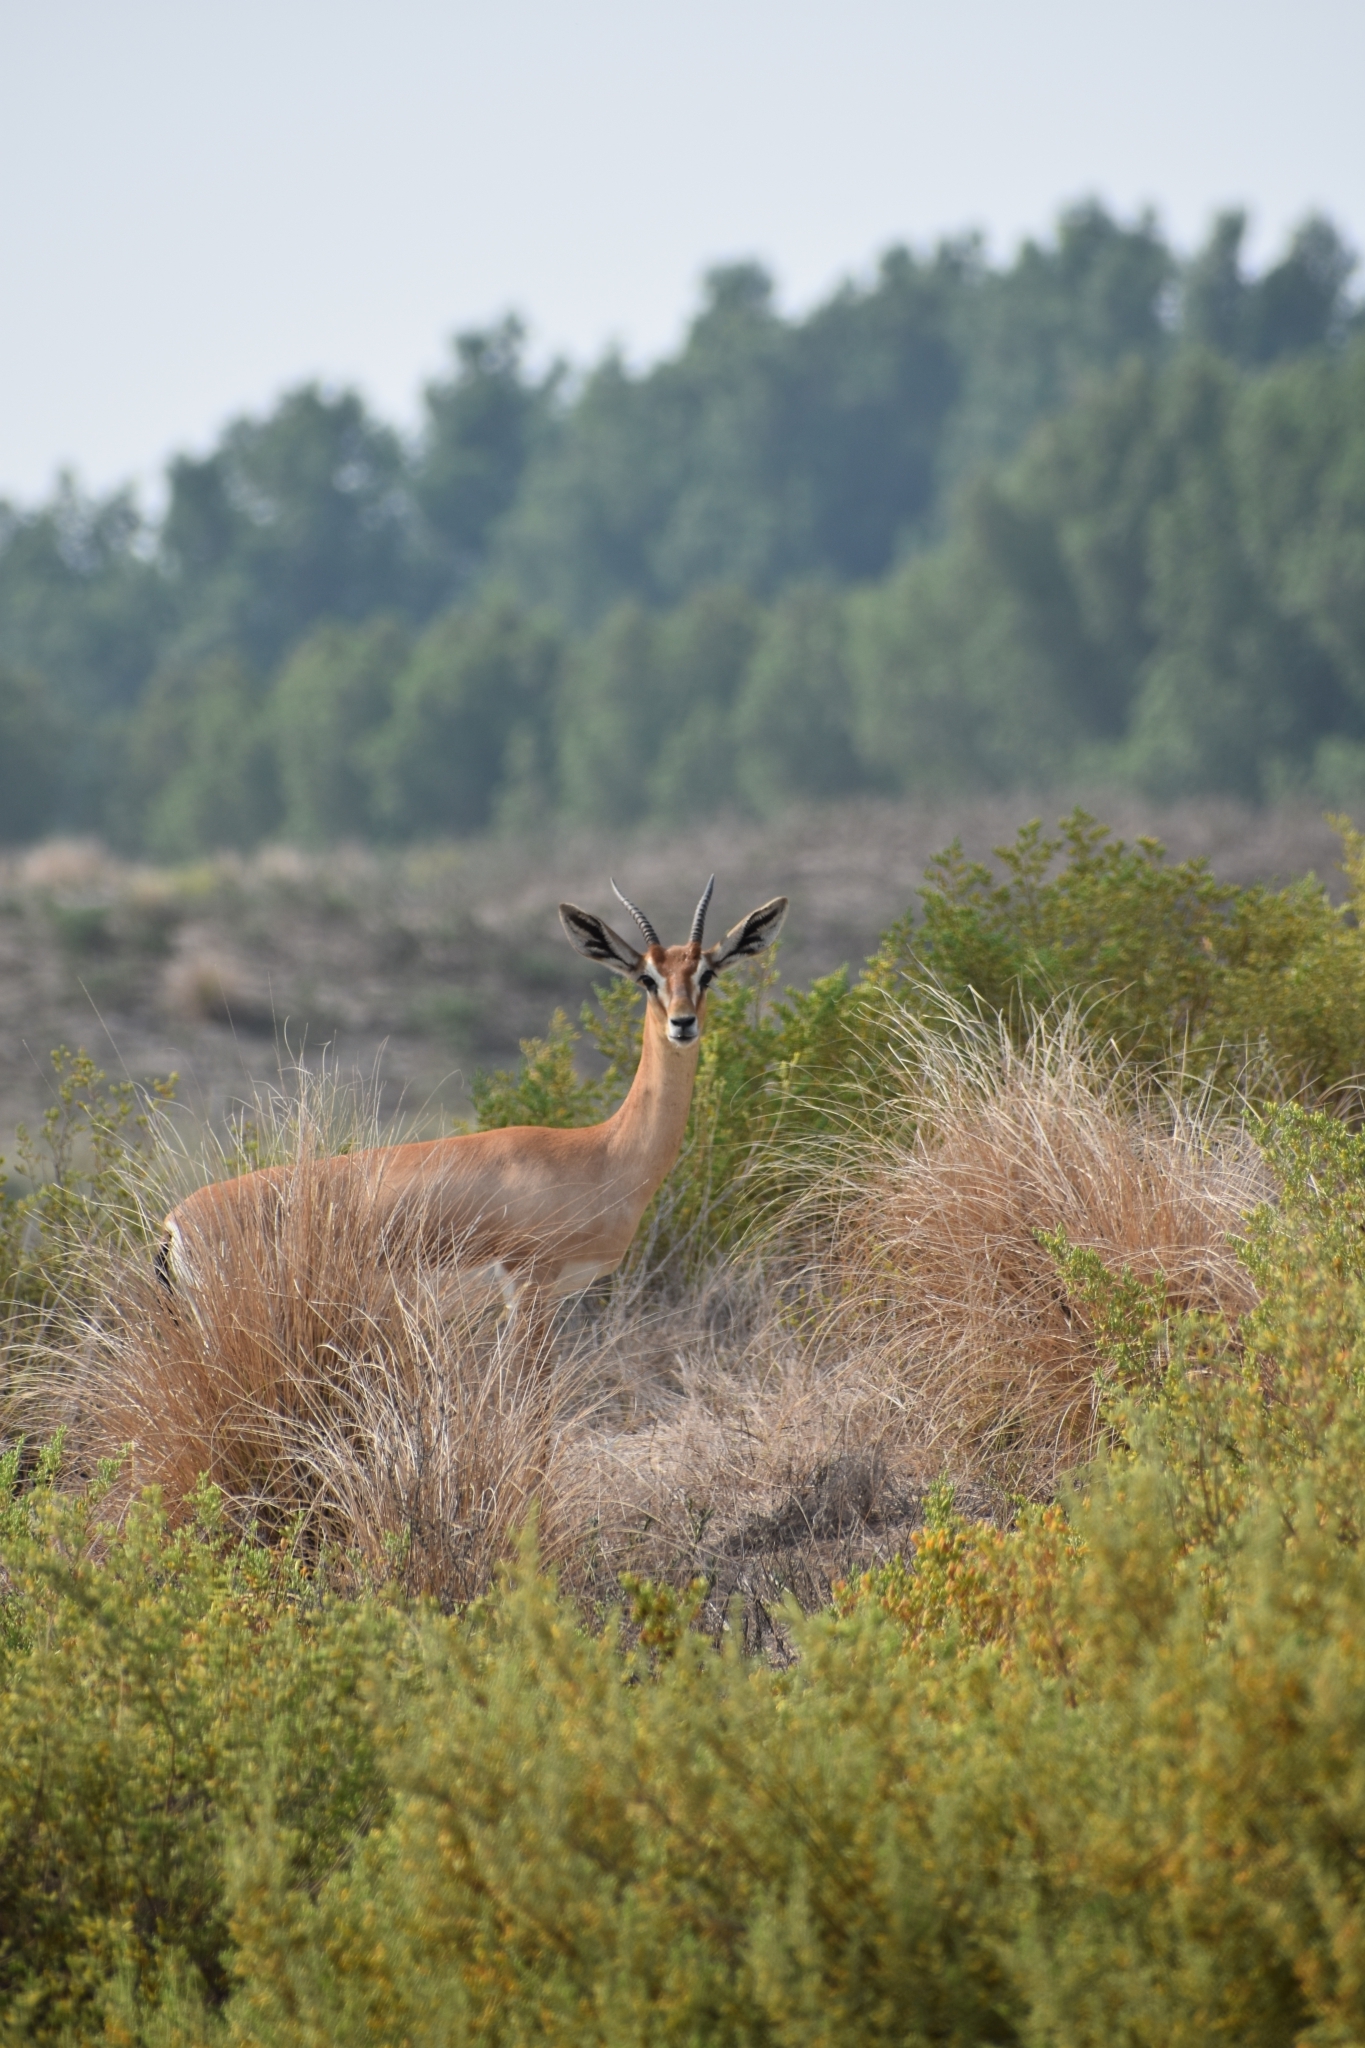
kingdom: Animalia
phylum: Chordata
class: Mammalia
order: Artiodactyla
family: Bovidae
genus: Gazella
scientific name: Gazella arabica
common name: Arabian gazelle
